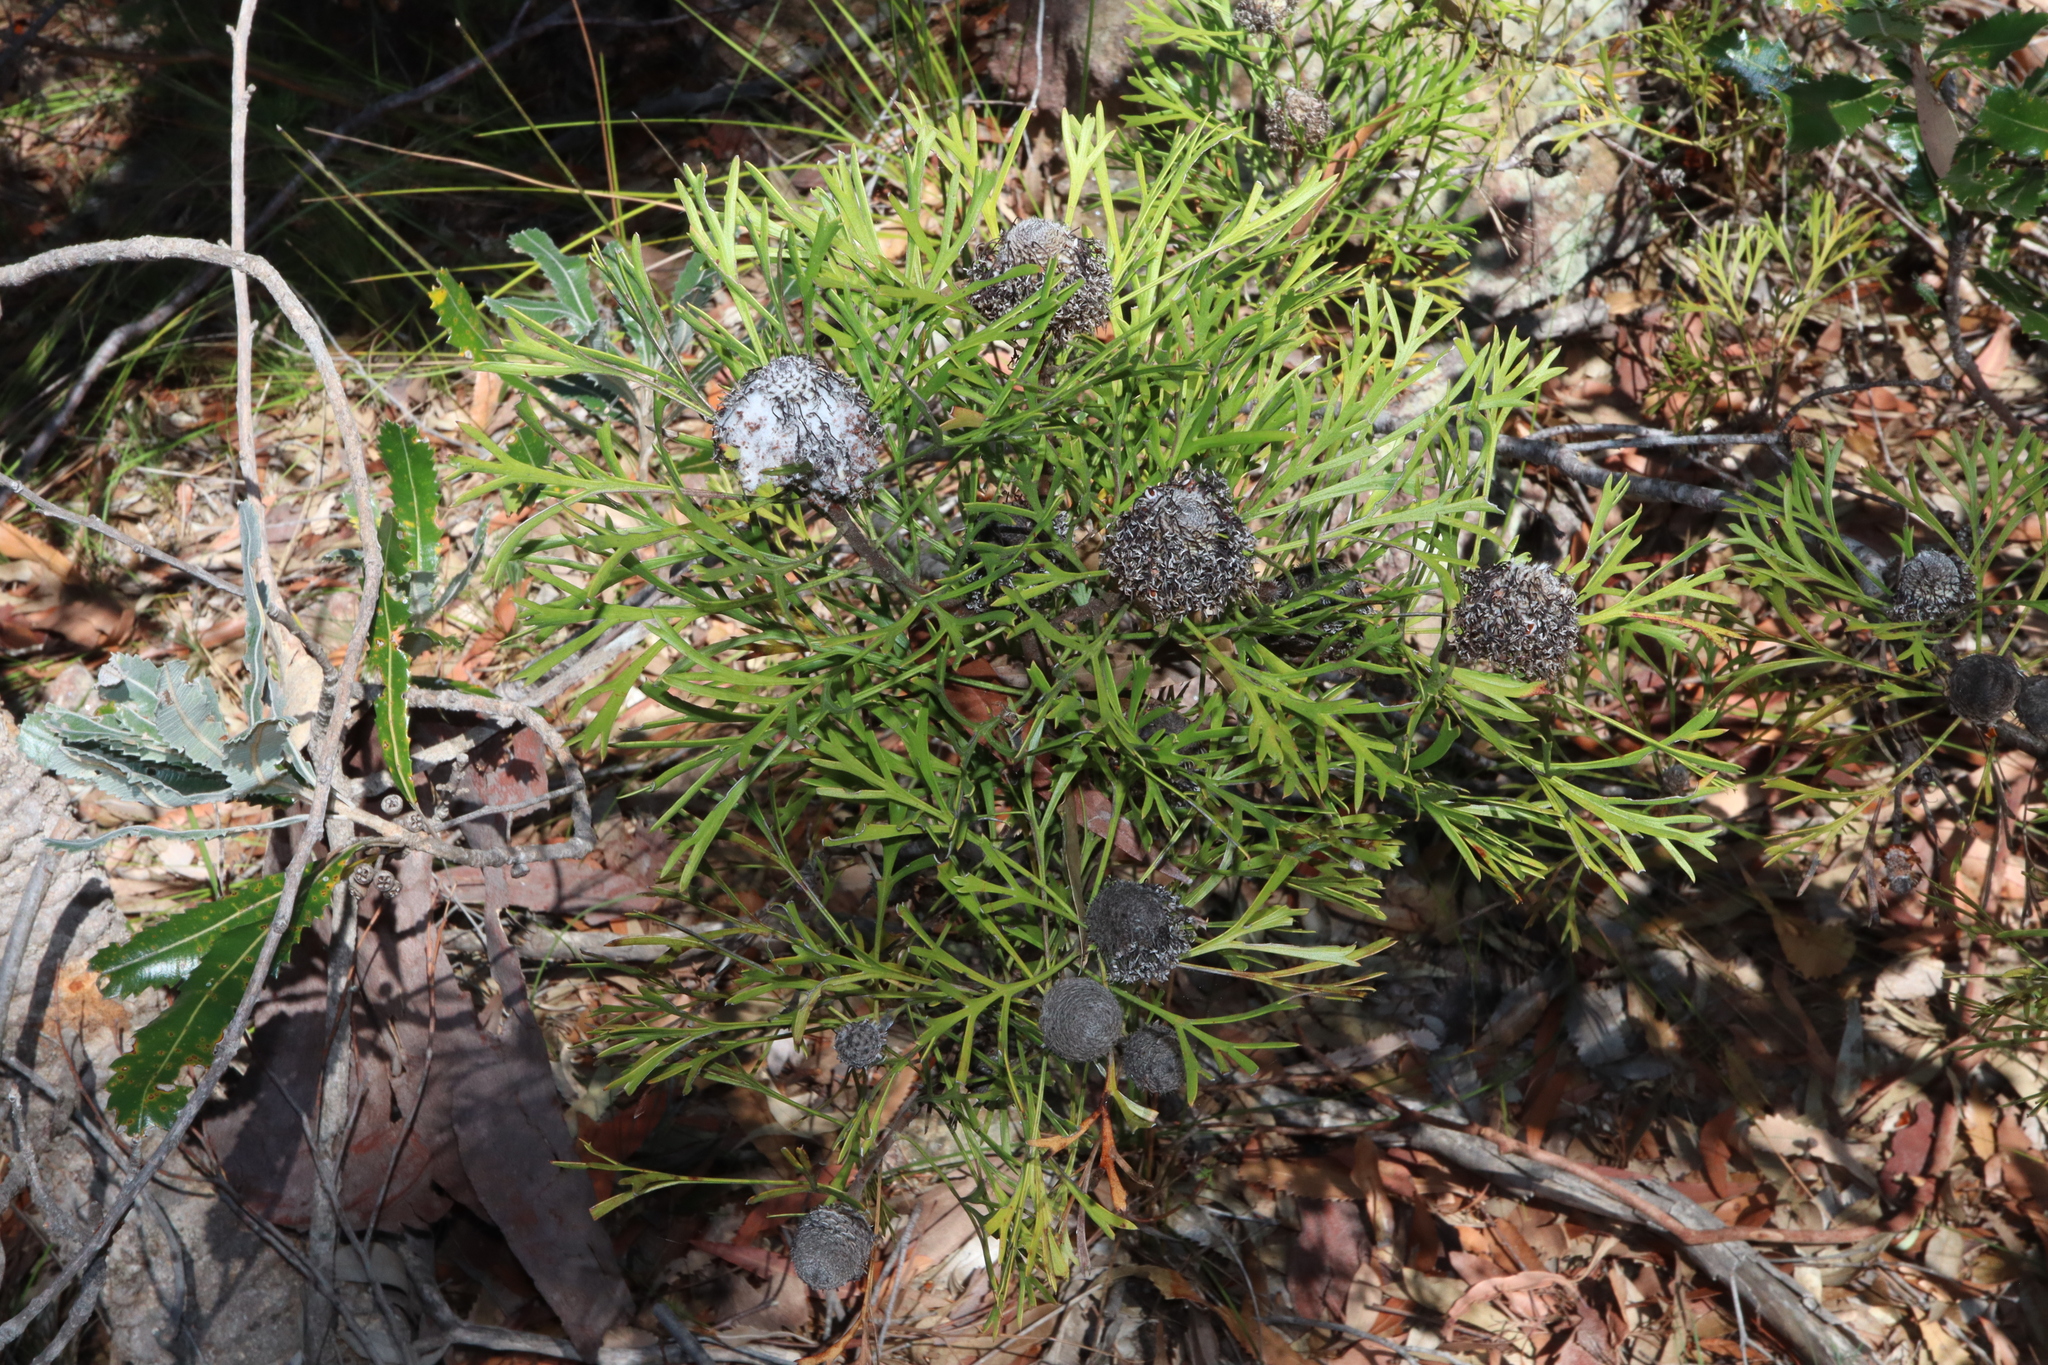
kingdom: Plantae
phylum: Tracheophyta
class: Magnoliopsida
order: Proteales
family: Proteaceae
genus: Isopogon
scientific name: Isopogon anemonifolius
